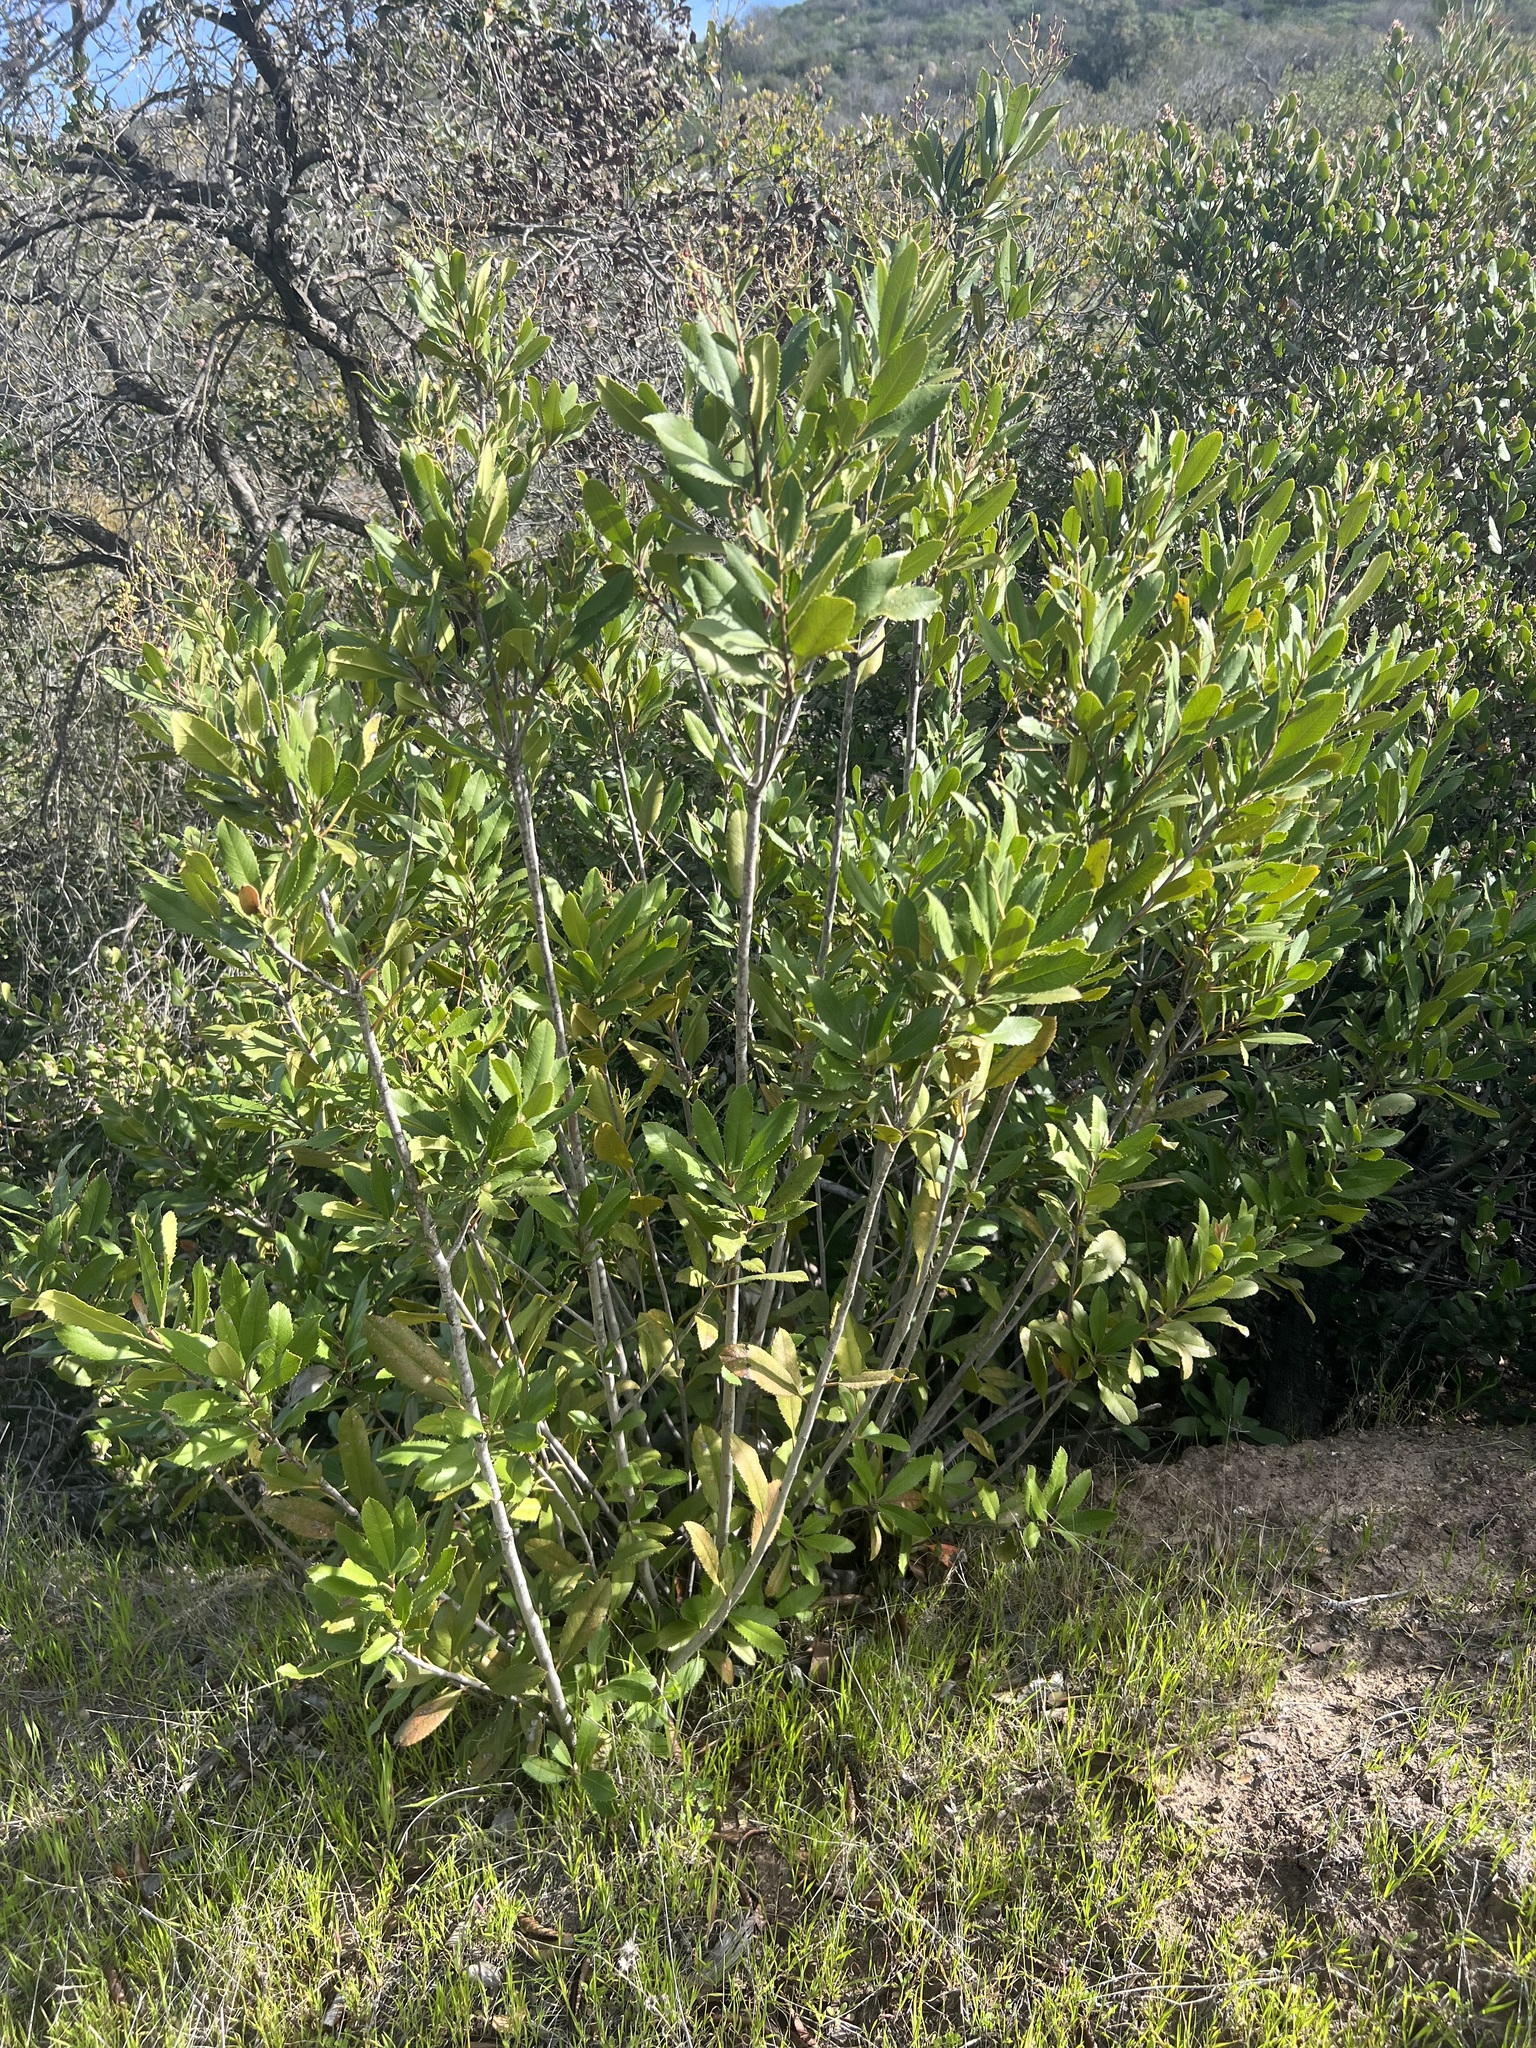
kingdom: Plantae
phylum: Tracheophyta
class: Magnoliopsida
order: Rosales
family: Rosaceae
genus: Heteromeles
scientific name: Heteromeles arbutifolia
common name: California-holly
